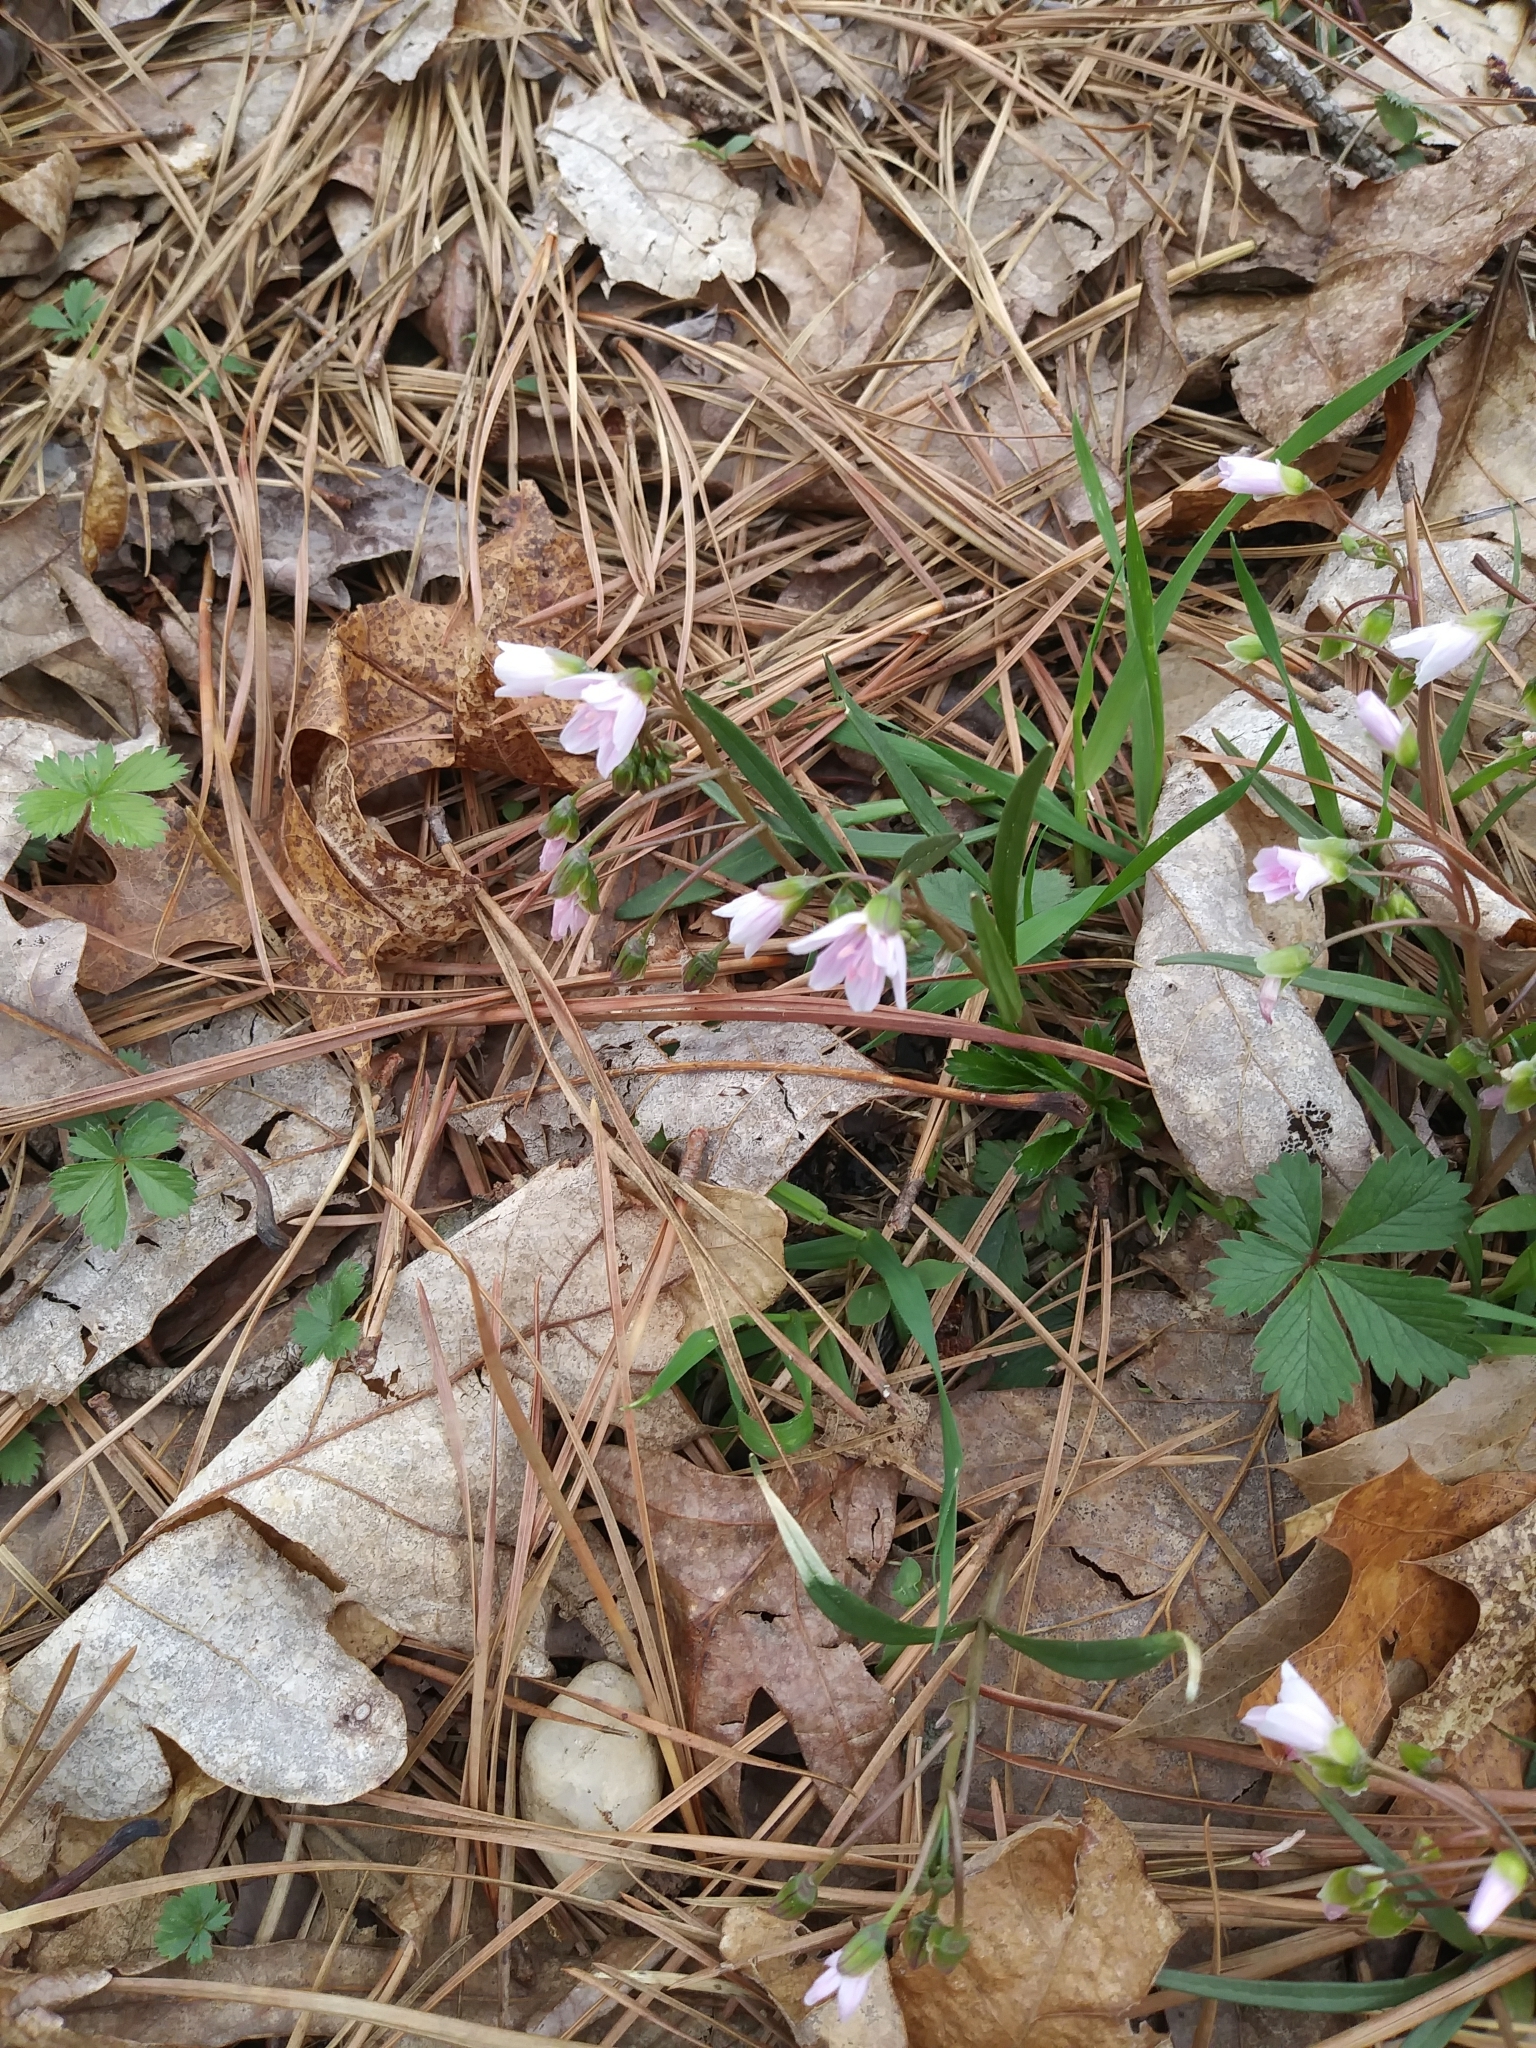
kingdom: Plantae
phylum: Tracheophyta
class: Magnoliopsida
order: Caryophyllales
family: Montiaceae
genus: Claytonia
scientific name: Claytonia virginica
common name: Virginia springbeauty
